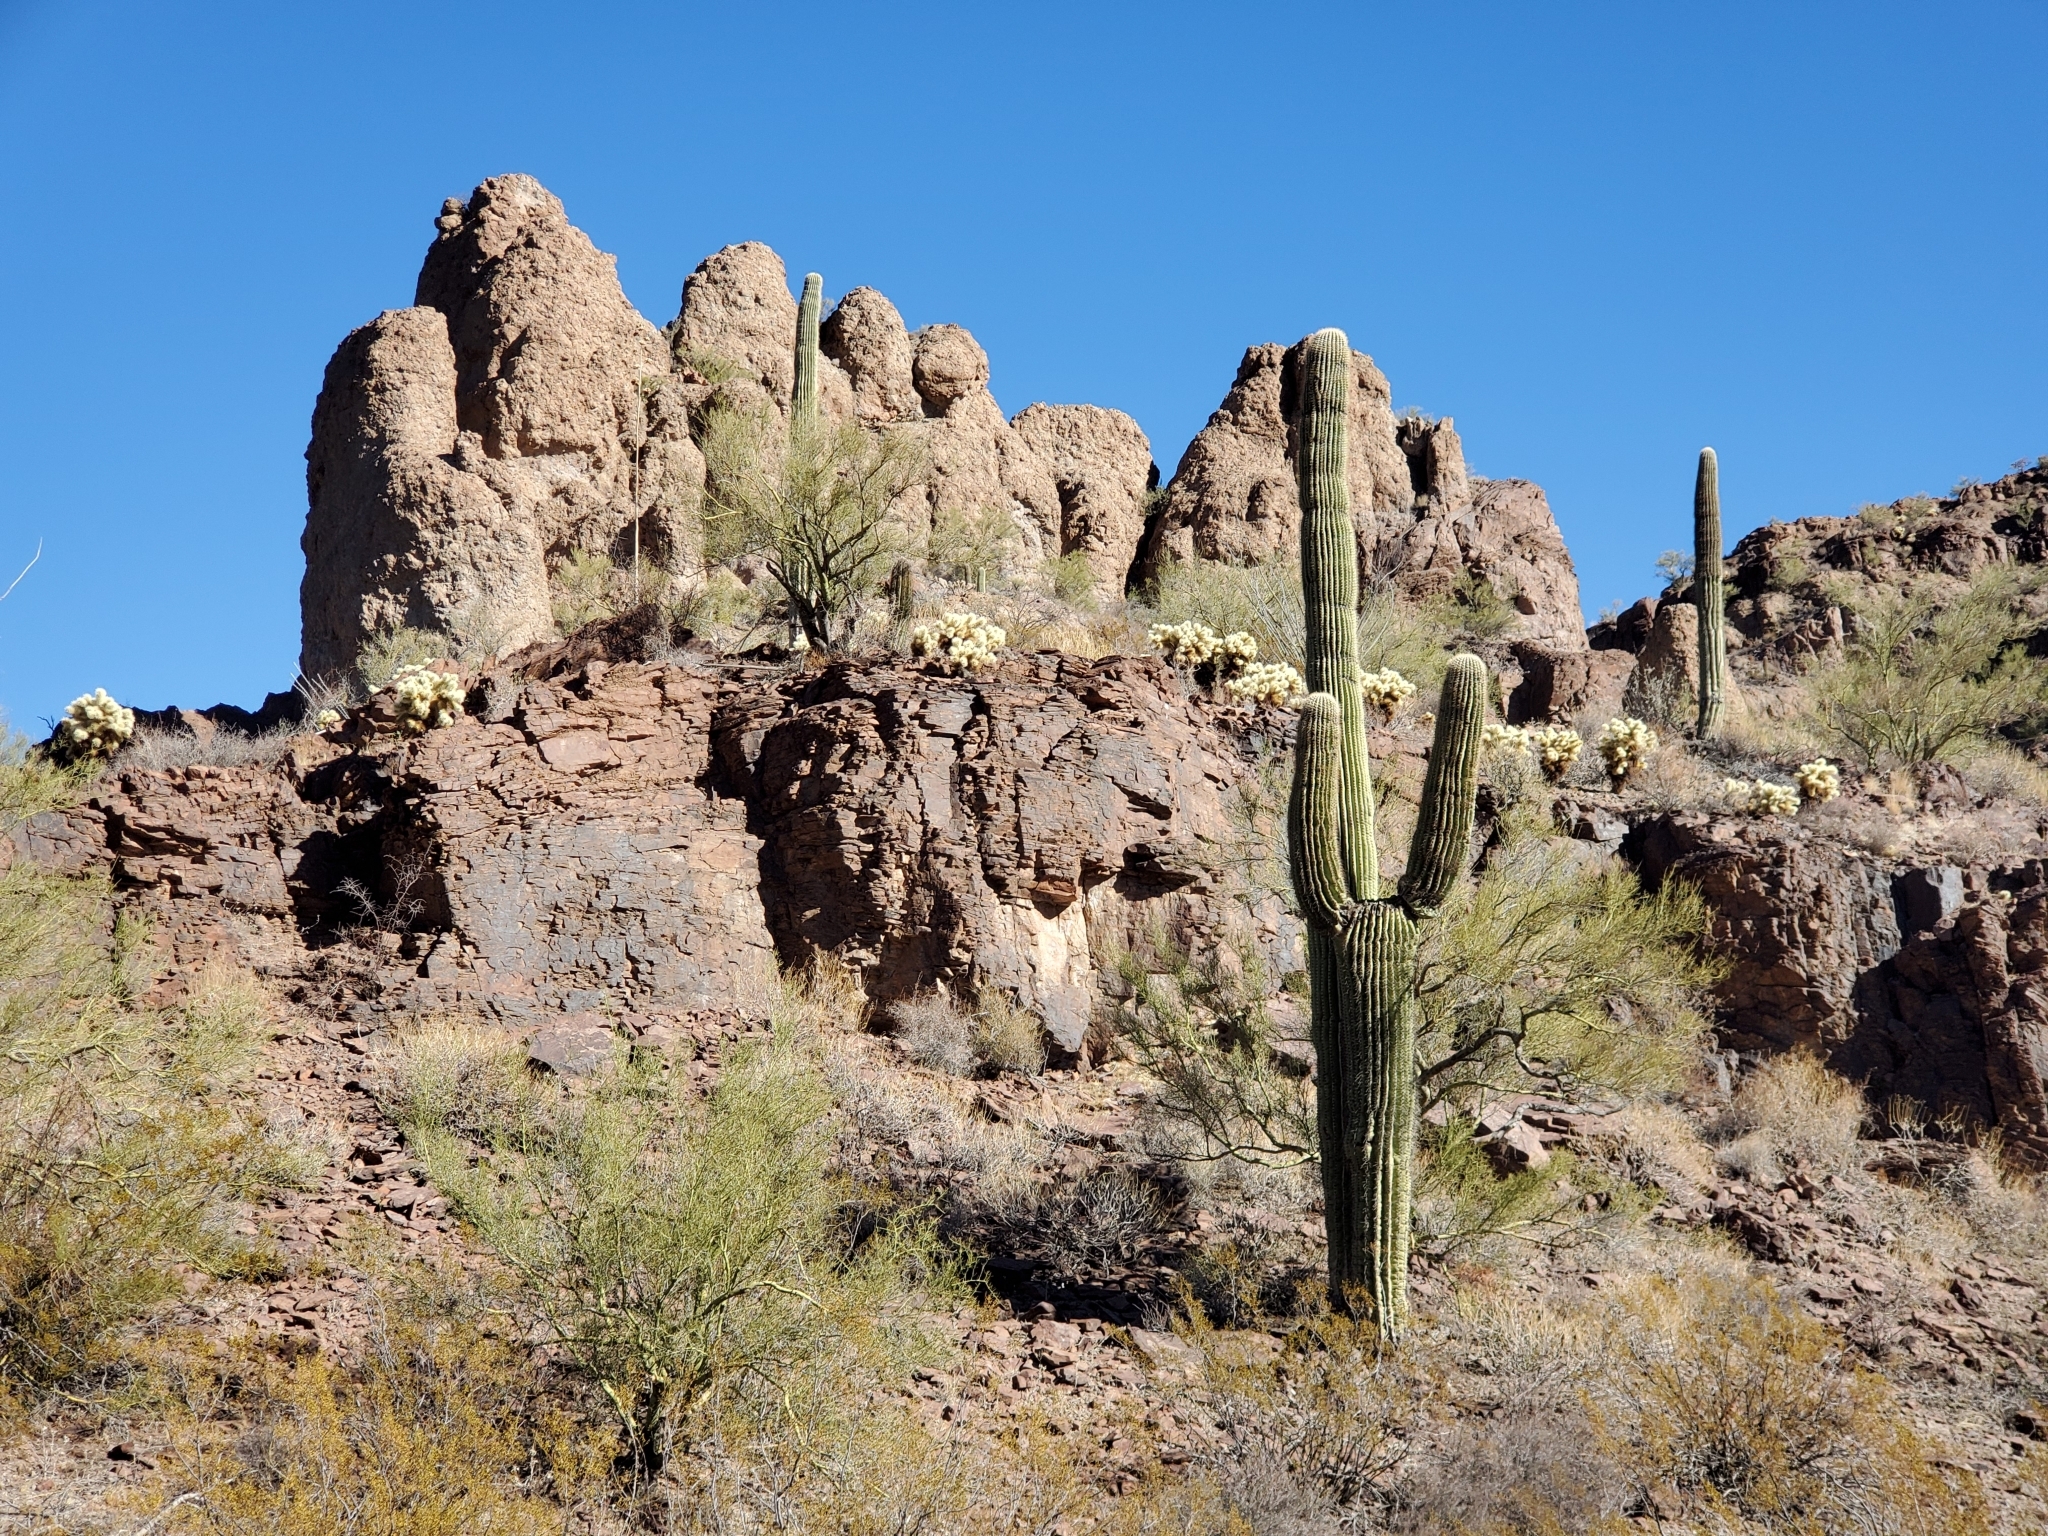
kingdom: Plantae
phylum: Tracheophyta
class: Magnoliopsida
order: Caryophyllales
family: Cactaceae
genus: Carnegiea
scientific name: Carnegiea gigantea
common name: Saguaro
